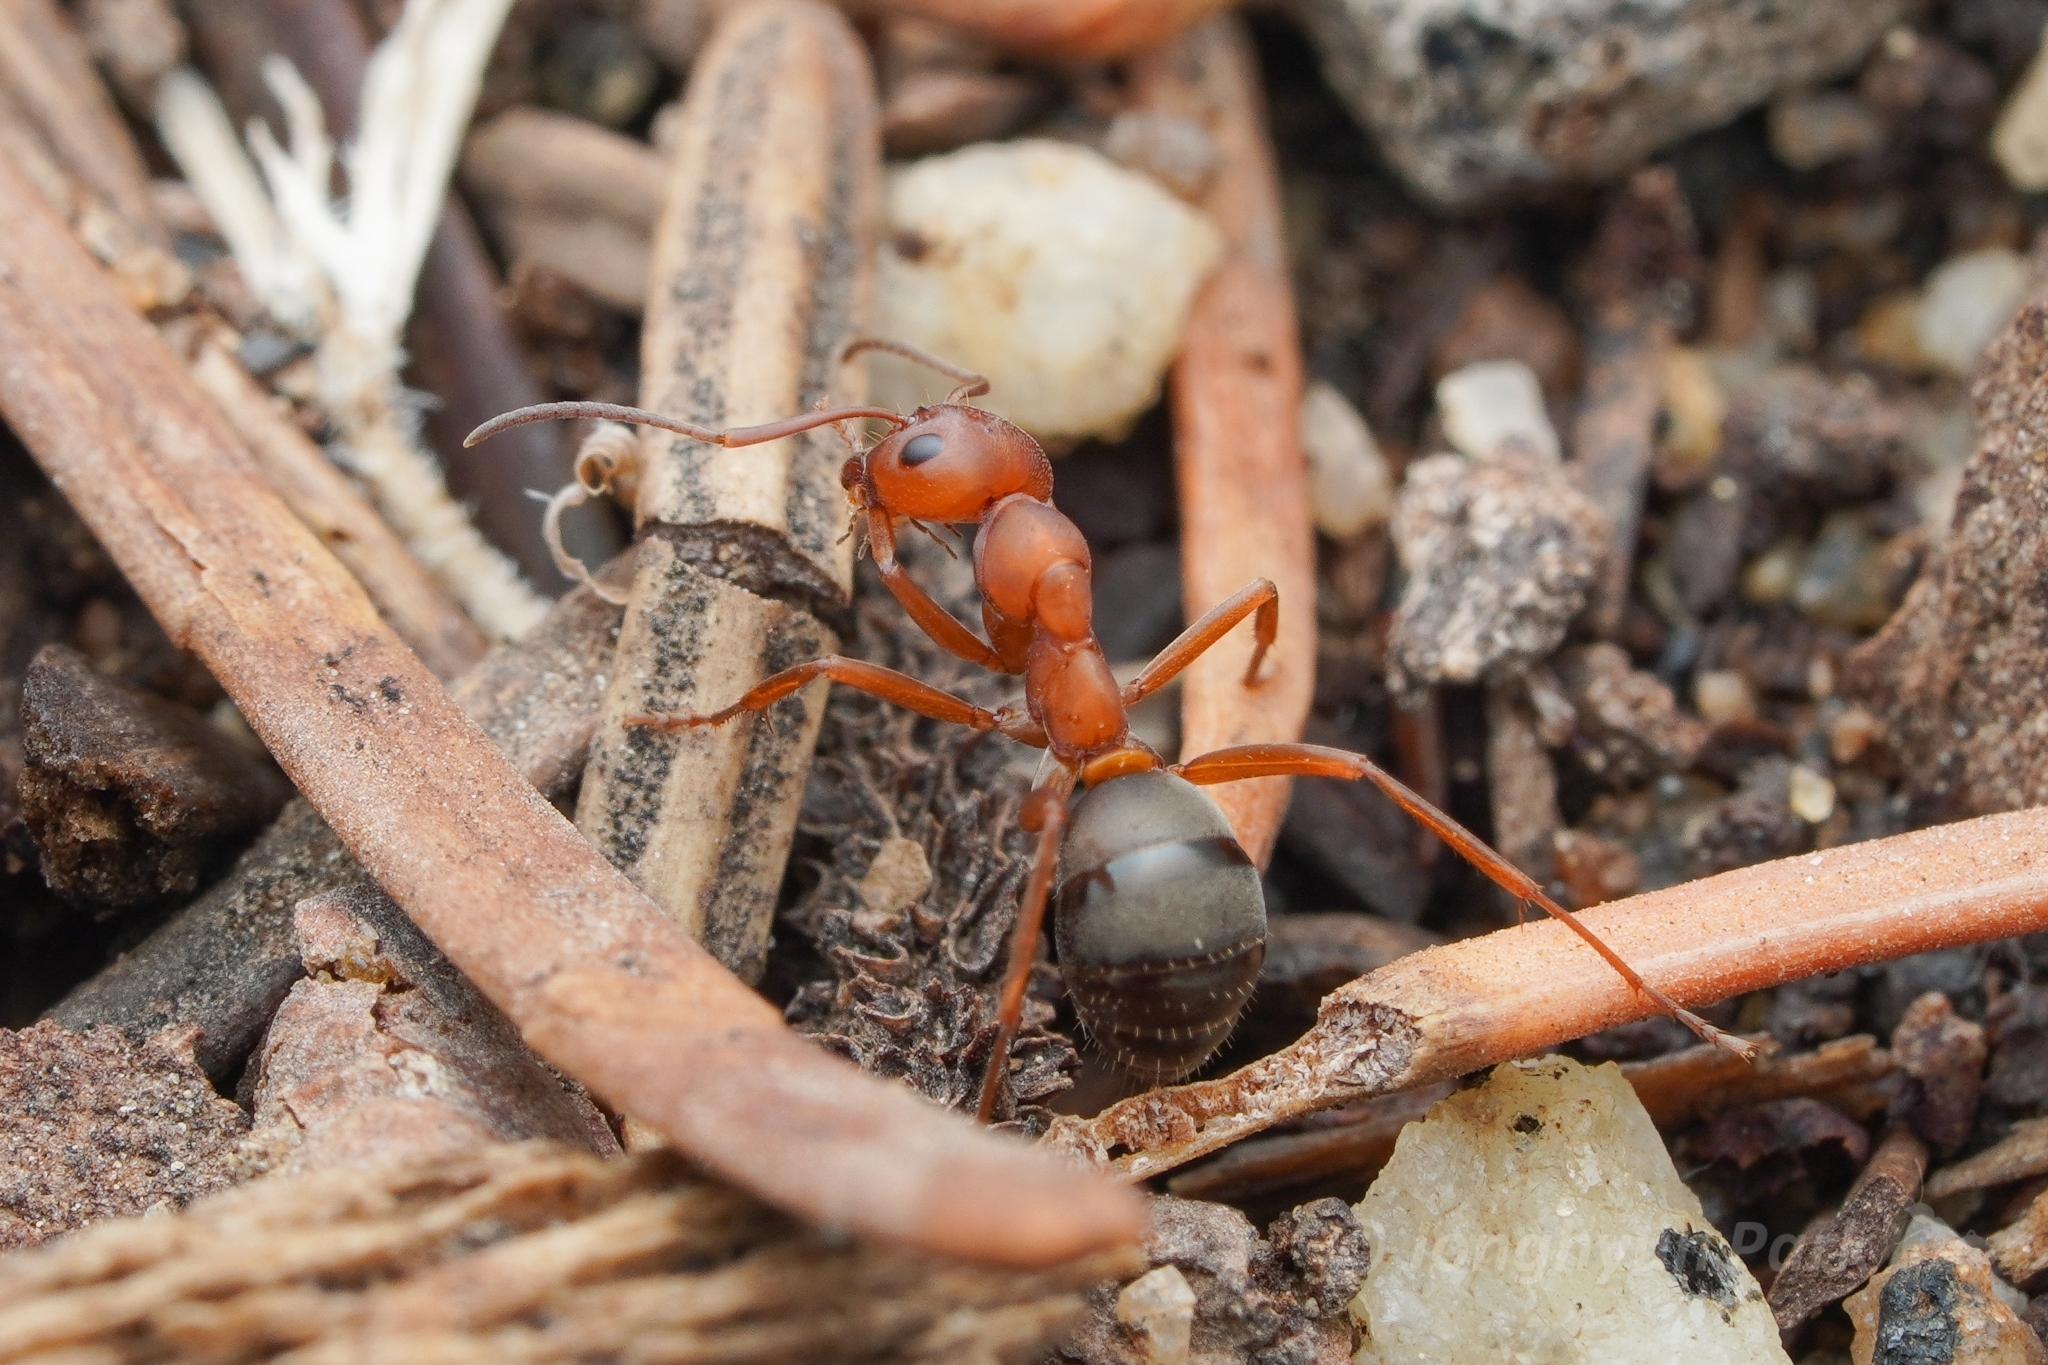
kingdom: Animalia
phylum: Arthropoda
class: Insecta
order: Hymenoptera
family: Formicidae
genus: Formica
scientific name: Formica ravida
